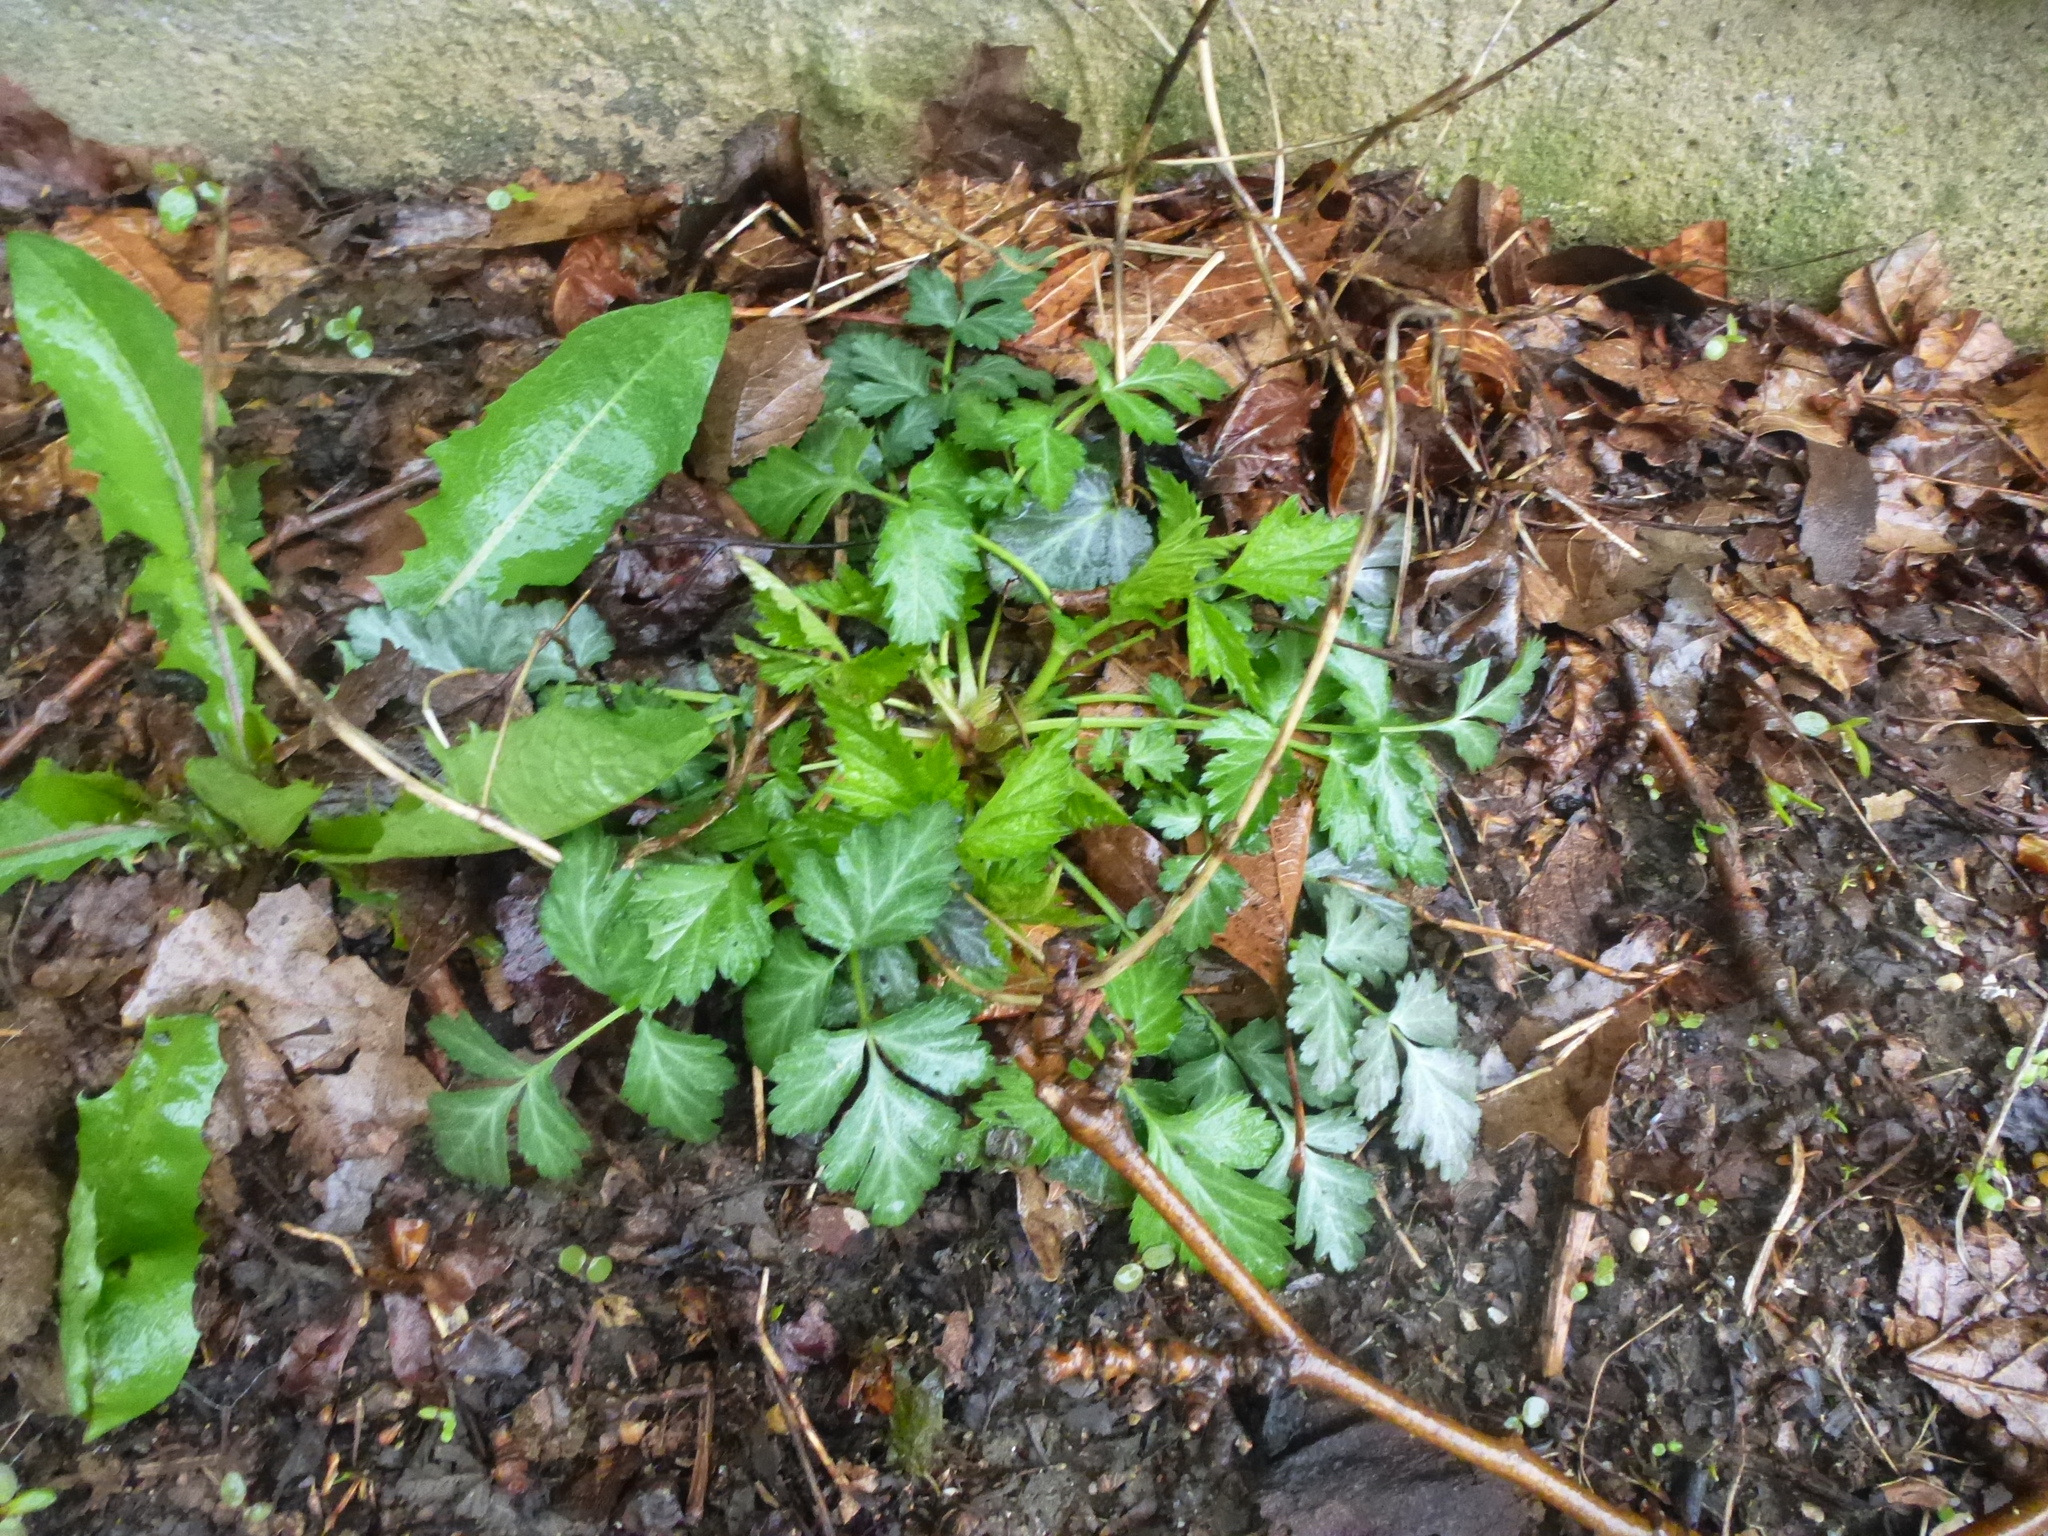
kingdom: Plantae
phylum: Tracheophyta
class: Magnoliopsida
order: Rosales
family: Rosaceae
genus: Geum
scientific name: Geum canadense
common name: White avens
